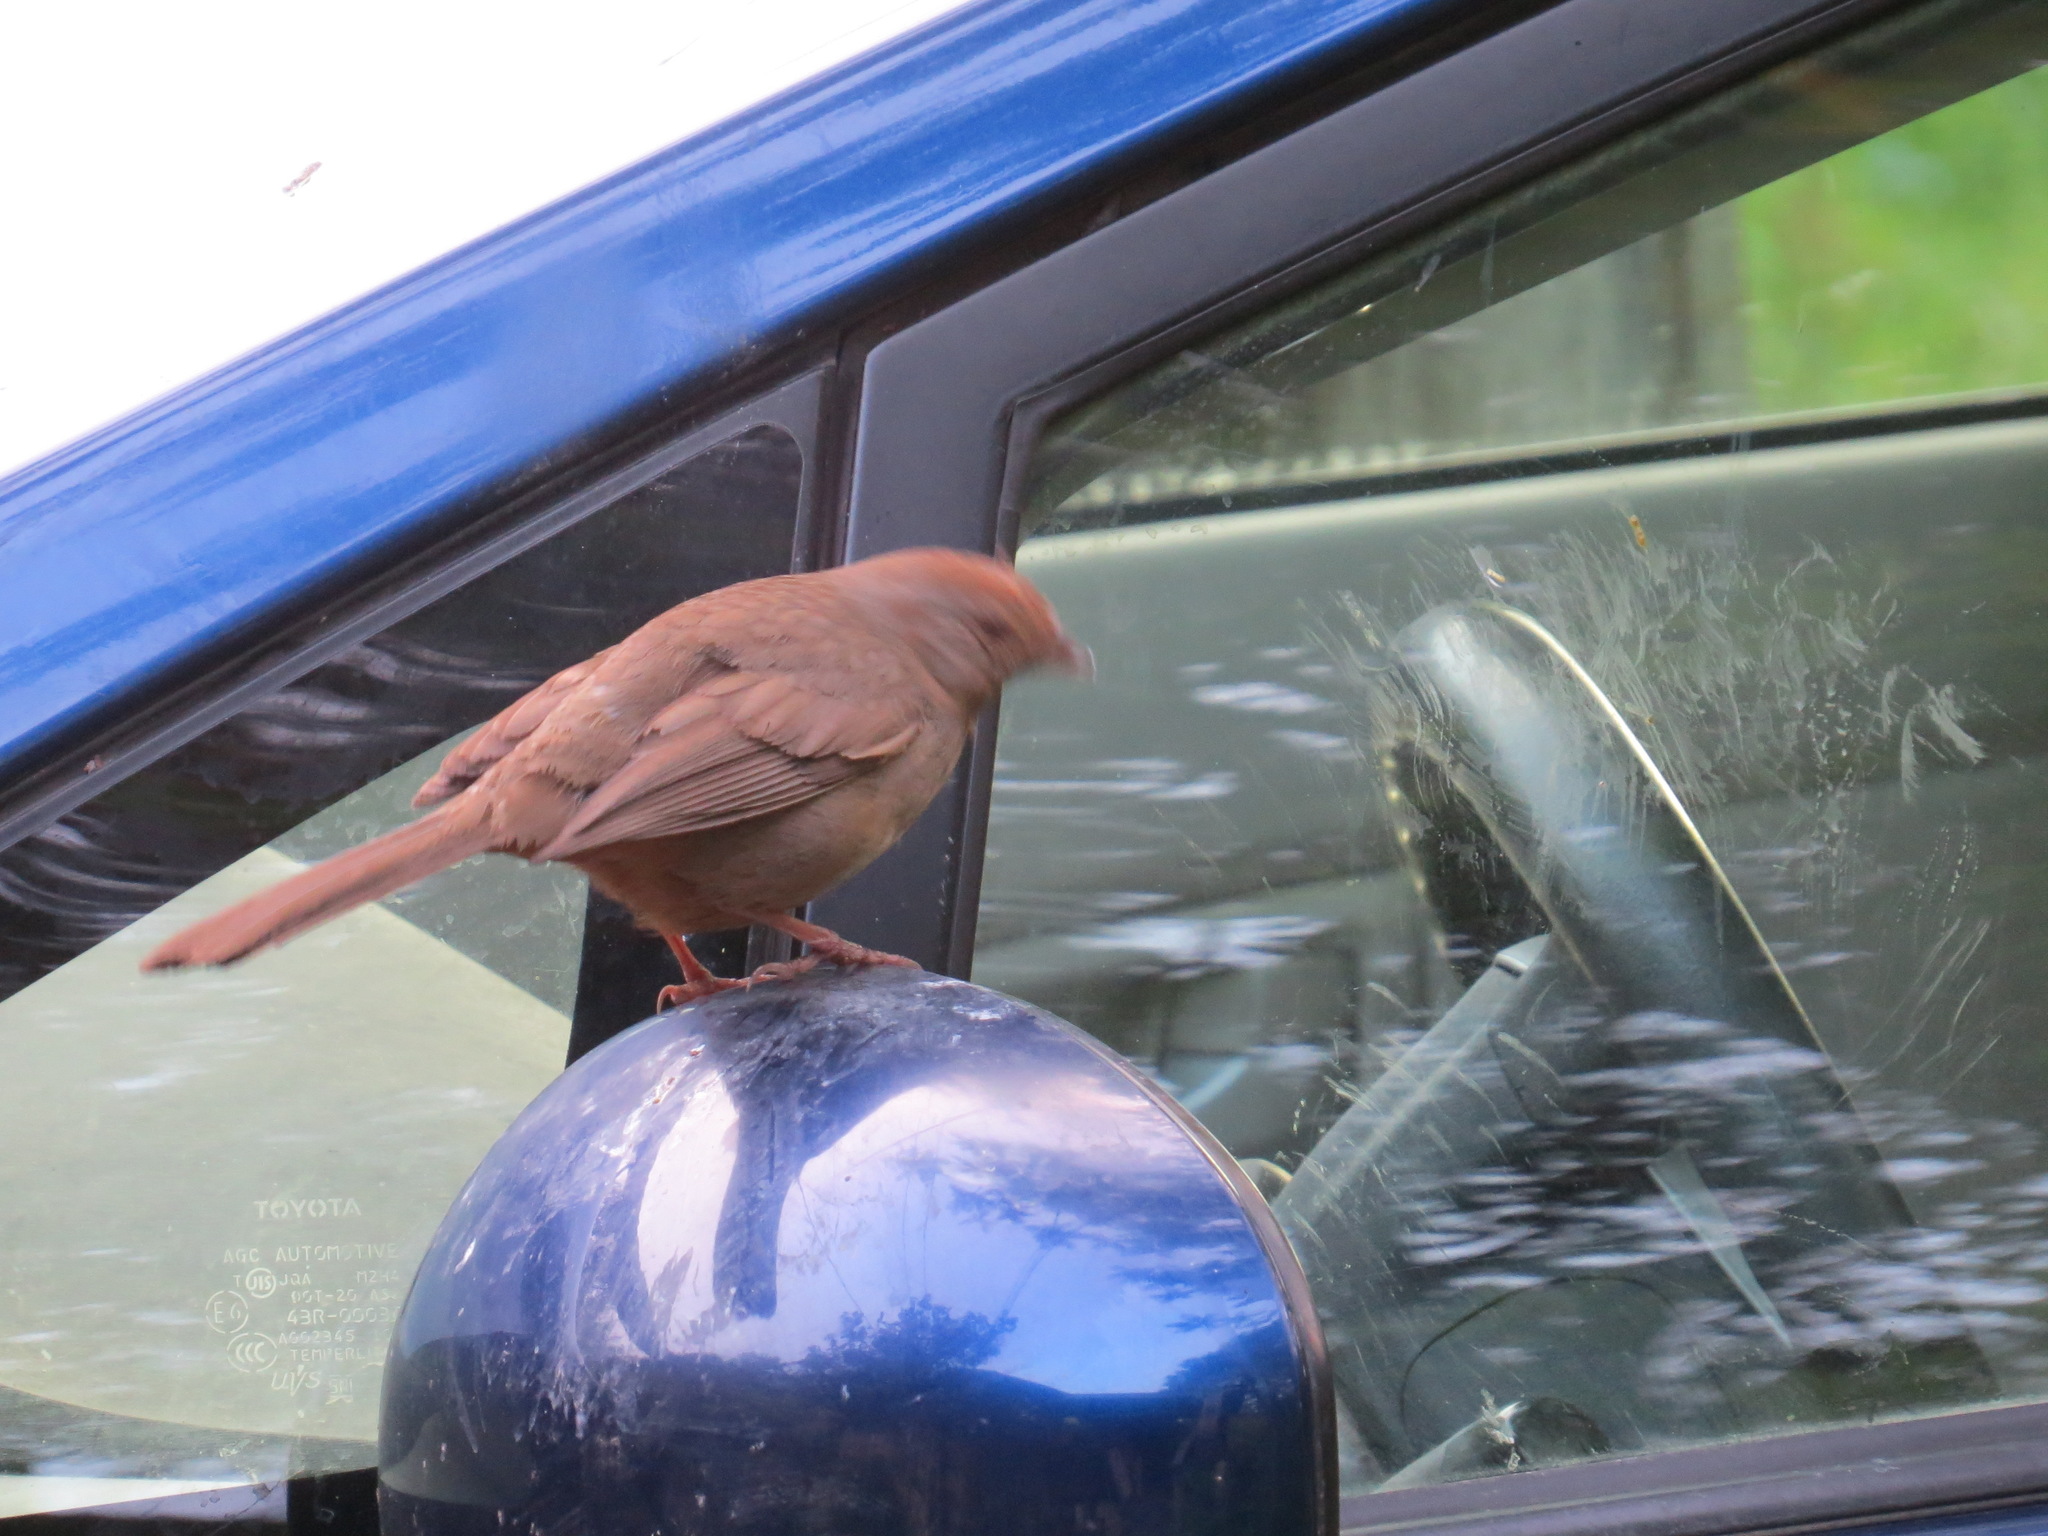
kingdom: Animalia
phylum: Chordata
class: Aves
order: Passeriformes
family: Passerellidae
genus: Melozone
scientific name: Melozone crissalis
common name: California towhee
